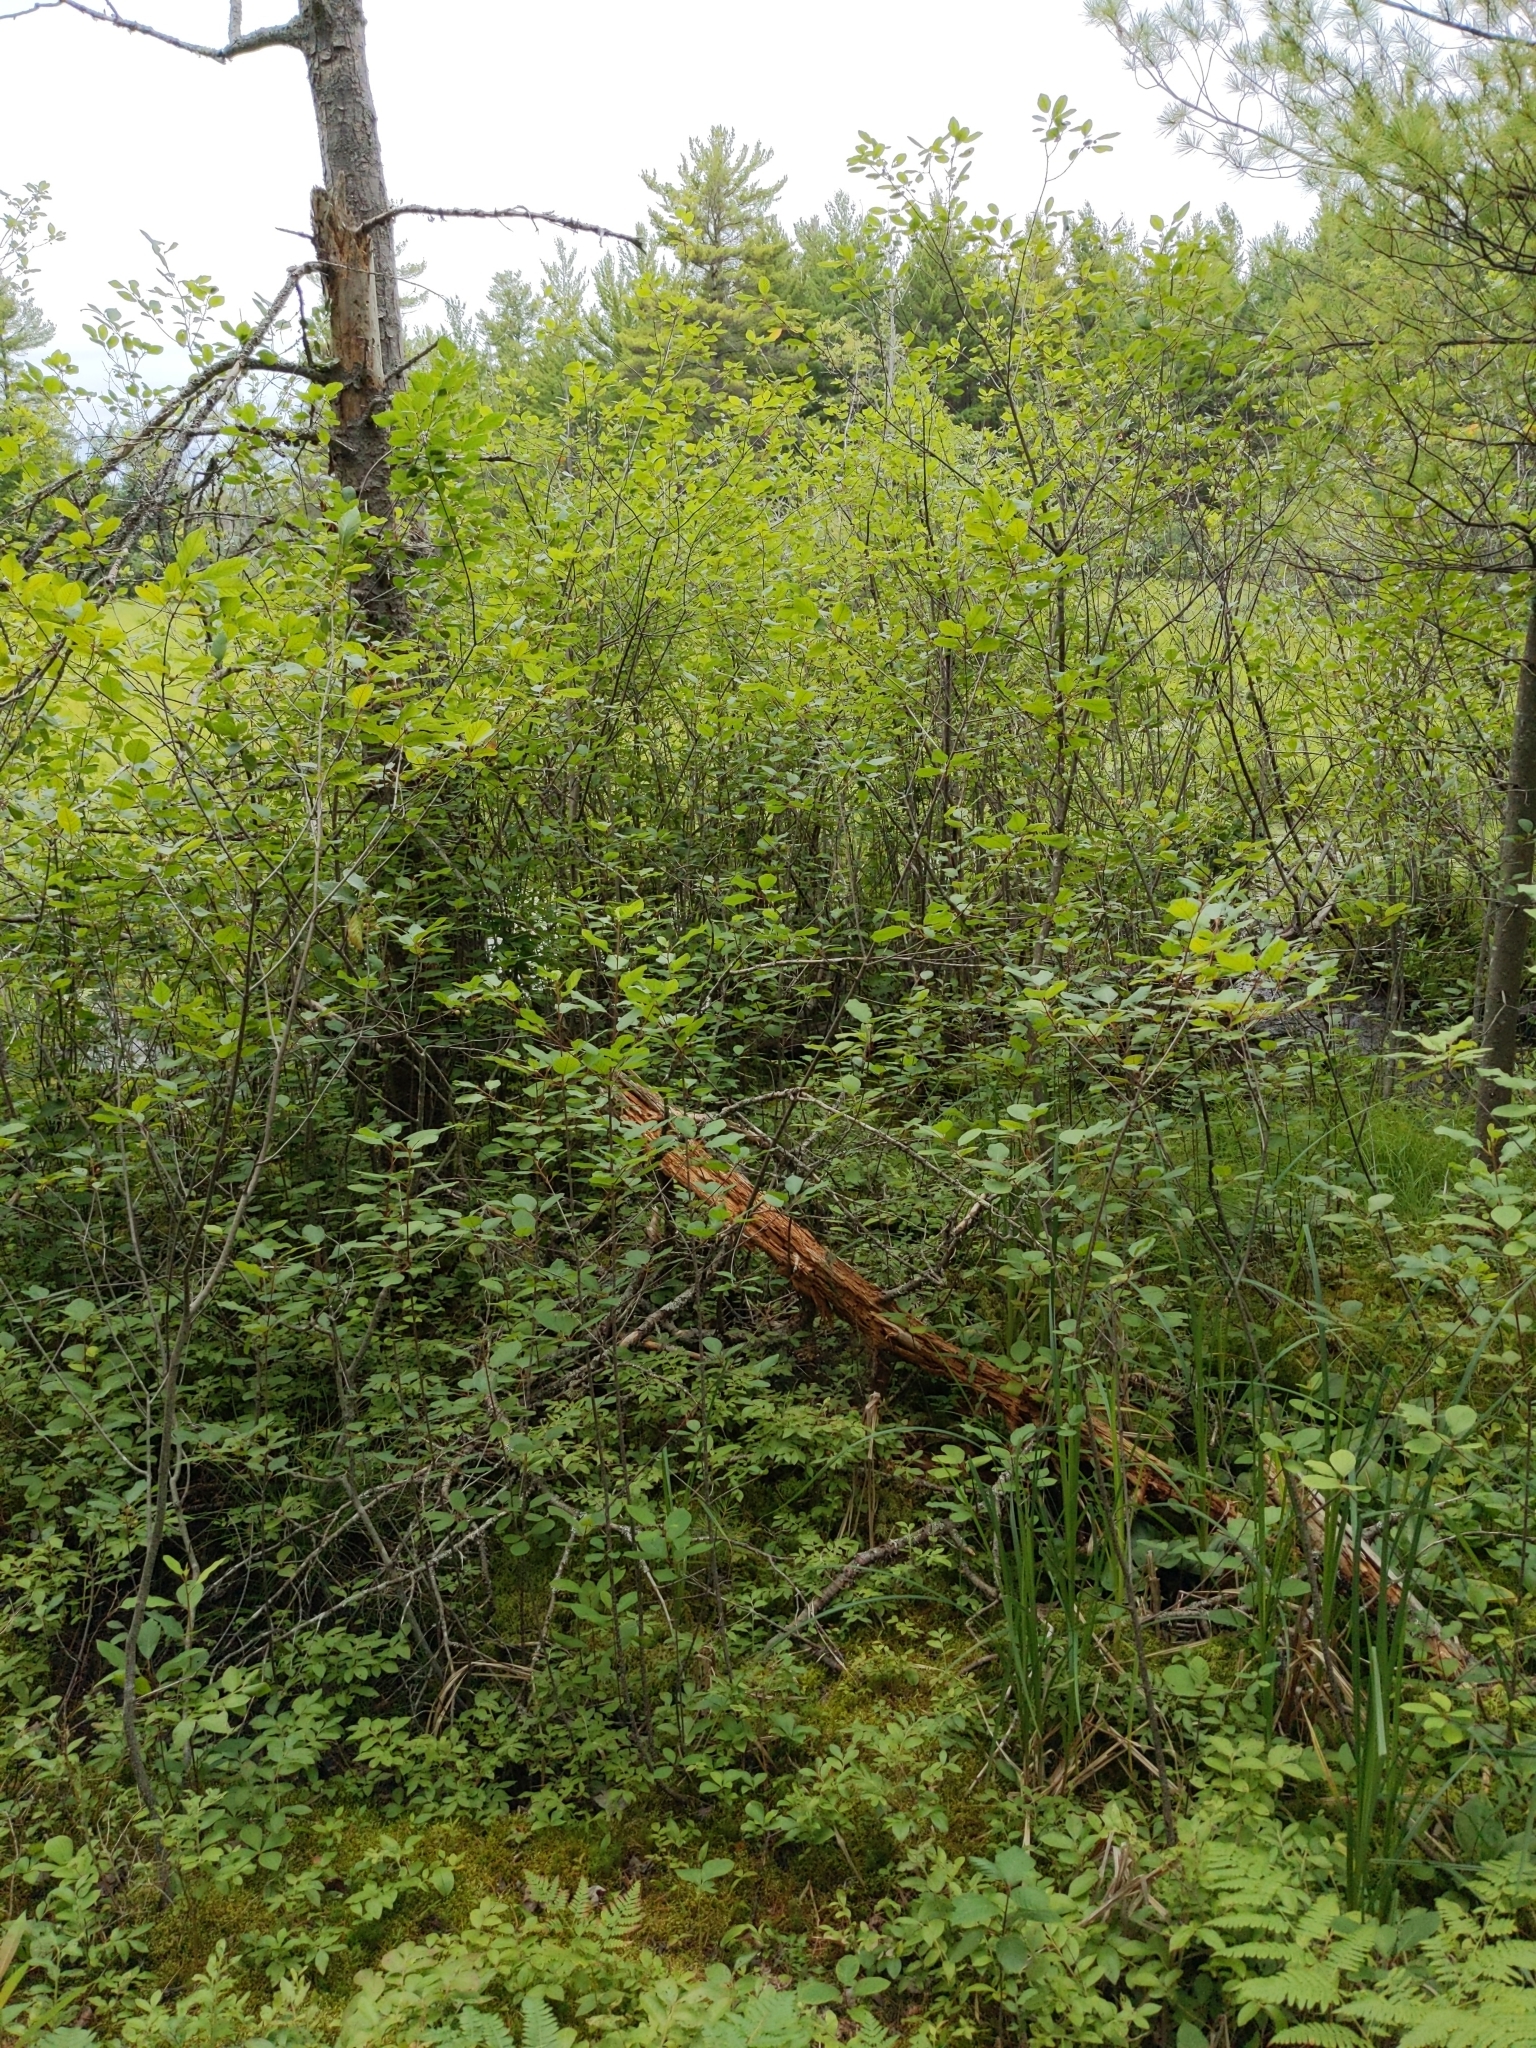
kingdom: Plantae
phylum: Tracheophyta
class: Magnoliopsida
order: Rosales
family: Rhamnaceae
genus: Frangula
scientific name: Frangula alnus
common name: Alder buckthorn
